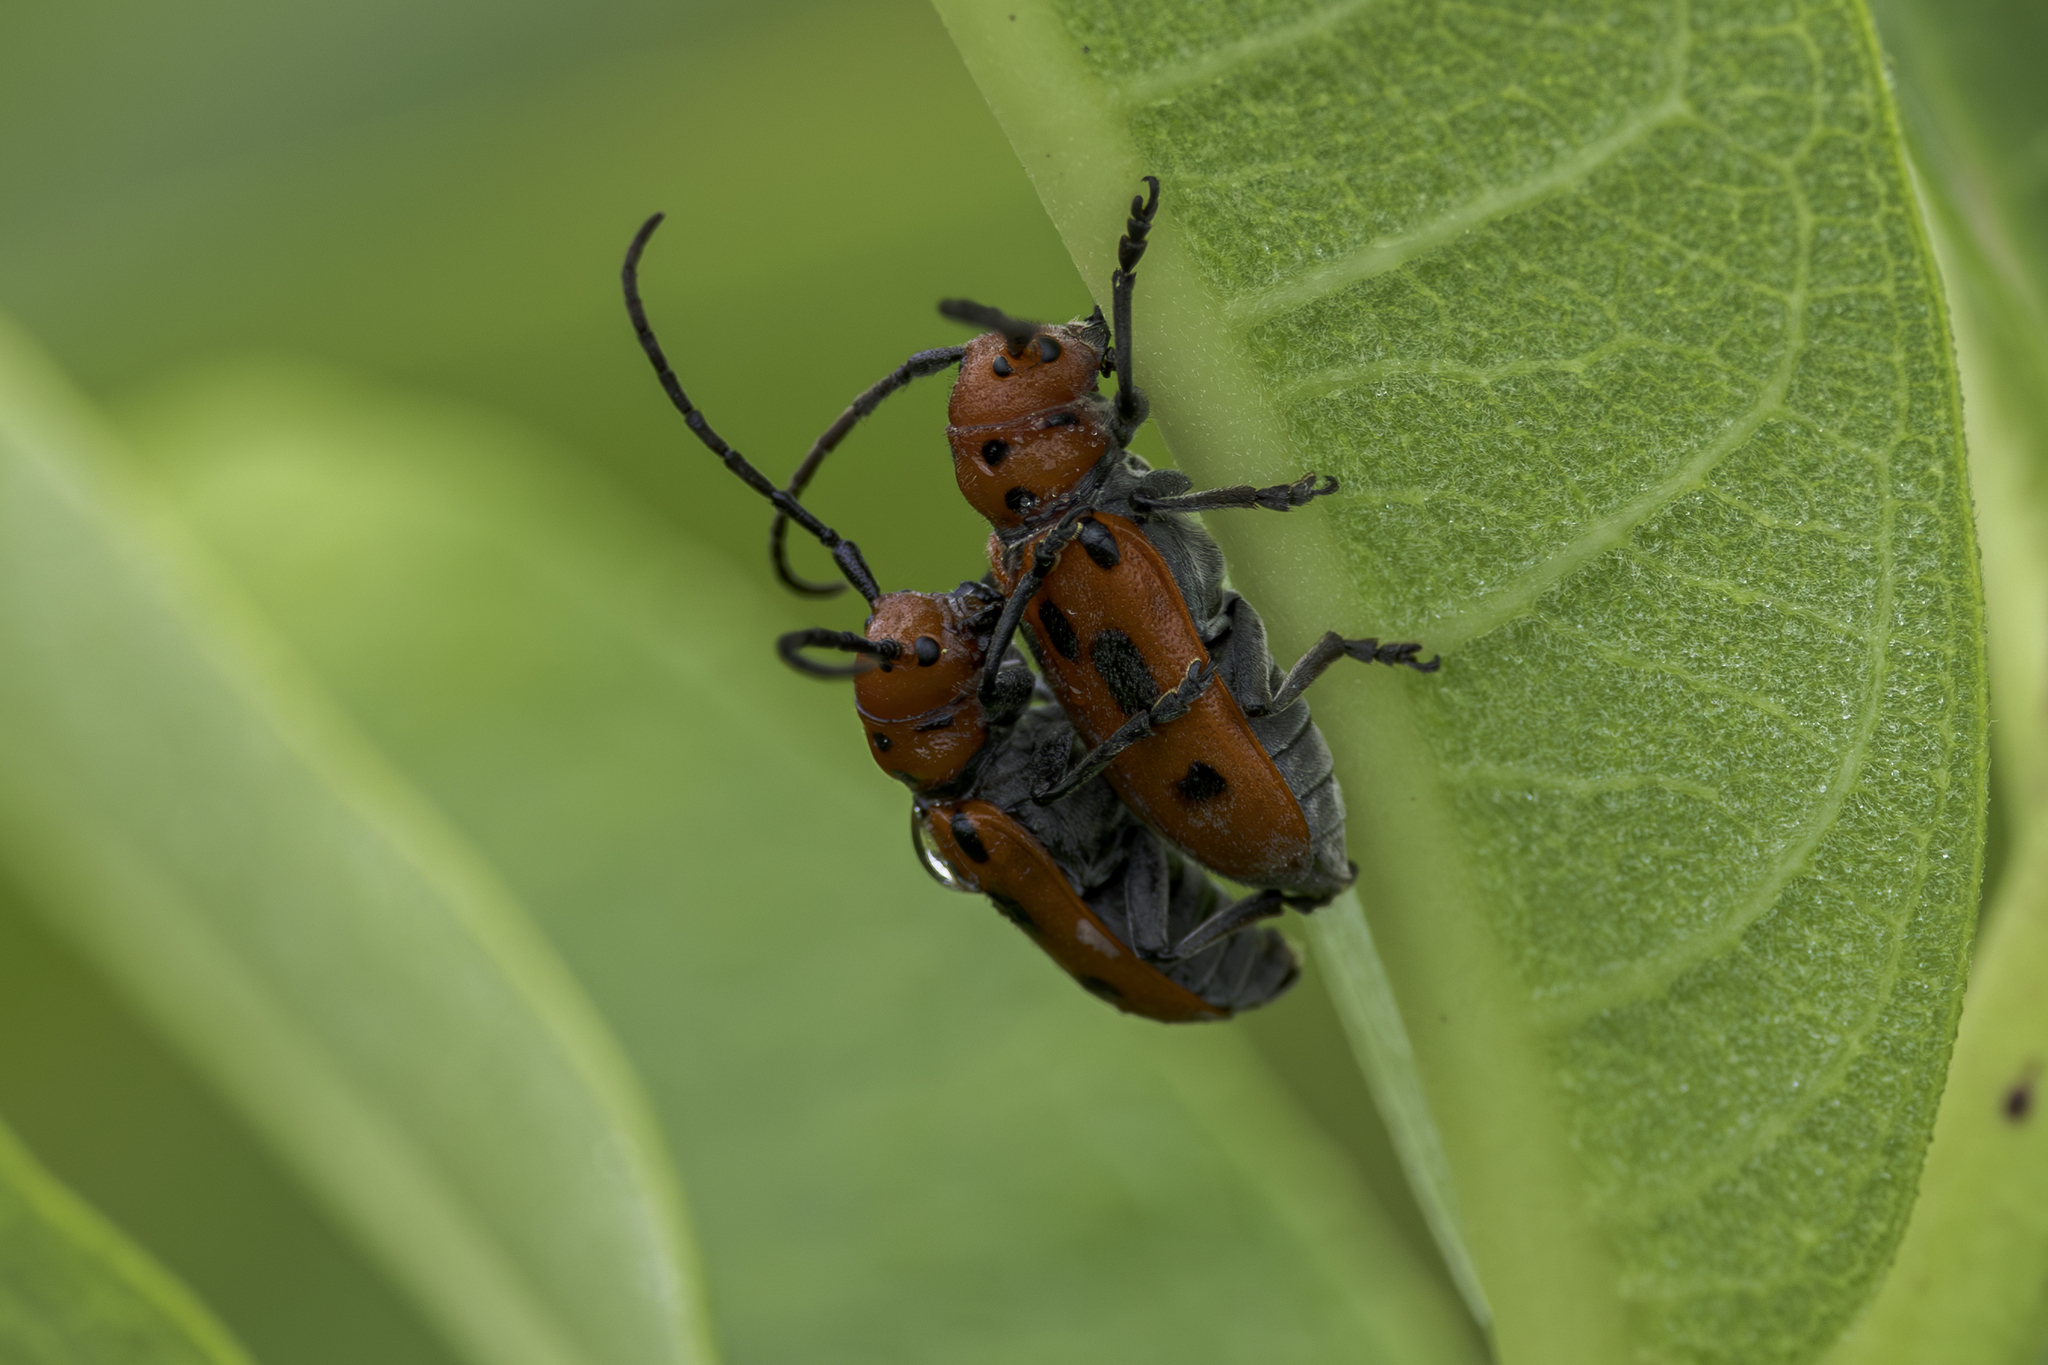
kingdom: Animalia
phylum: Arthropoda
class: Insecta
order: Coleoptera
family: Cerambycidae
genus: Tetraopes
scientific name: Tetraopes tetrophthalmus
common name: Red milkweed beetle
